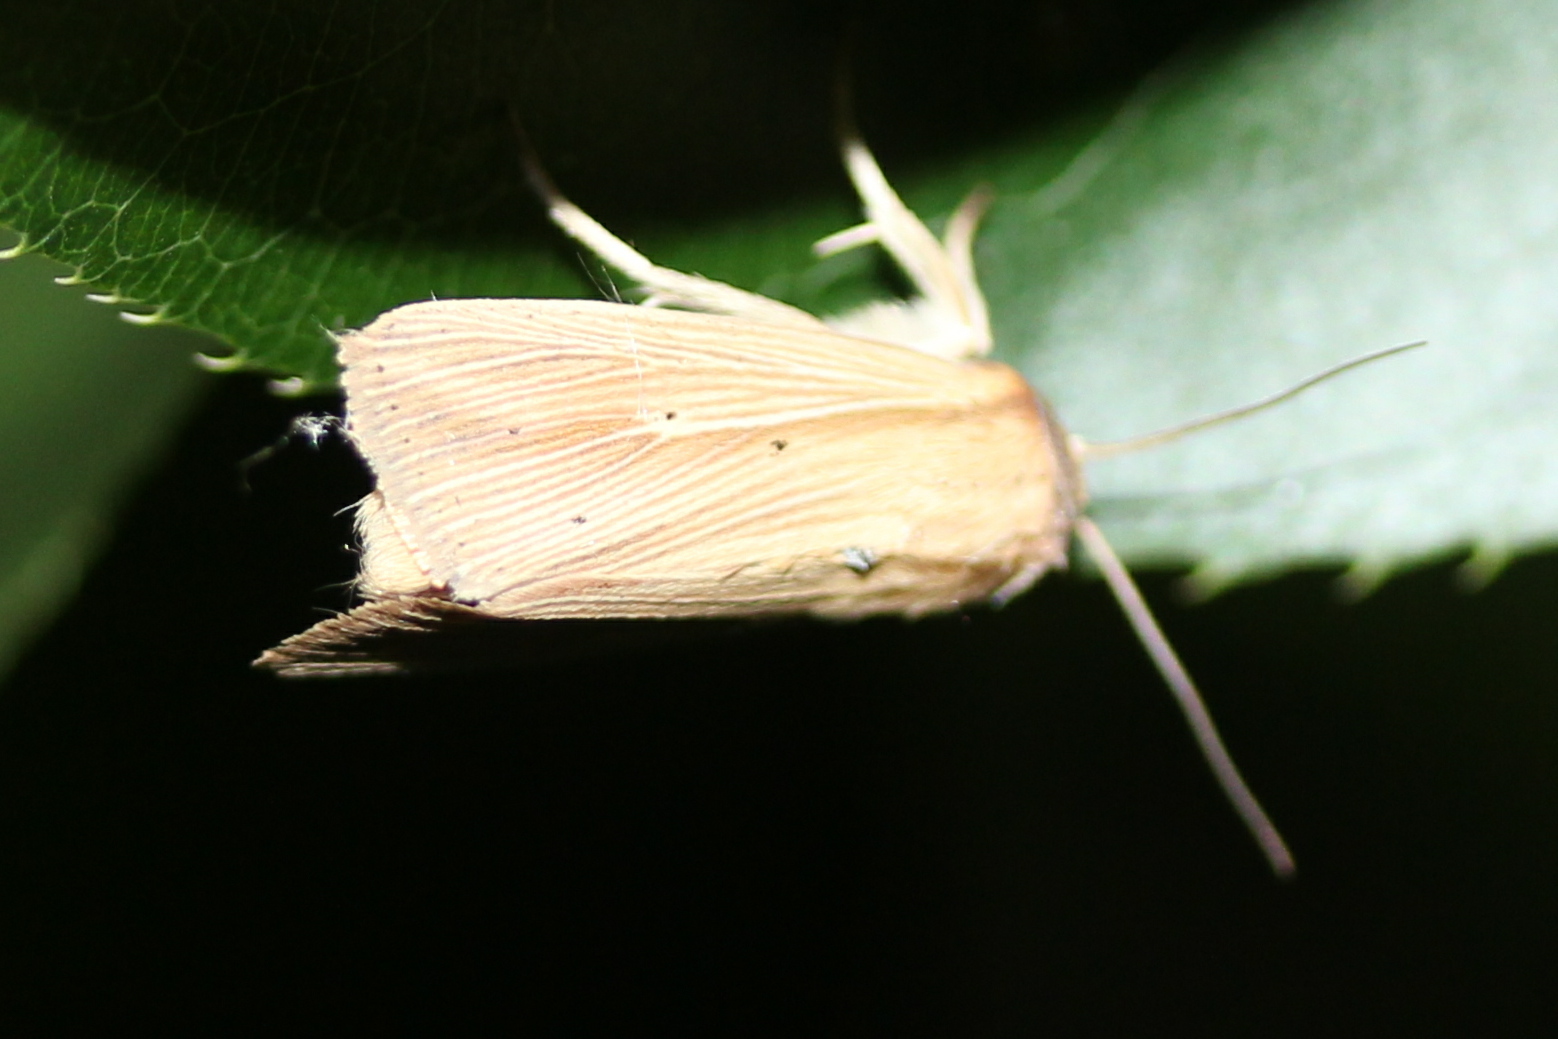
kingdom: Animalia
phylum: Arthropoda
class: Insecta
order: Lepidoptera
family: Noctuidae
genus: Leucania
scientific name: Leucania adjuta
